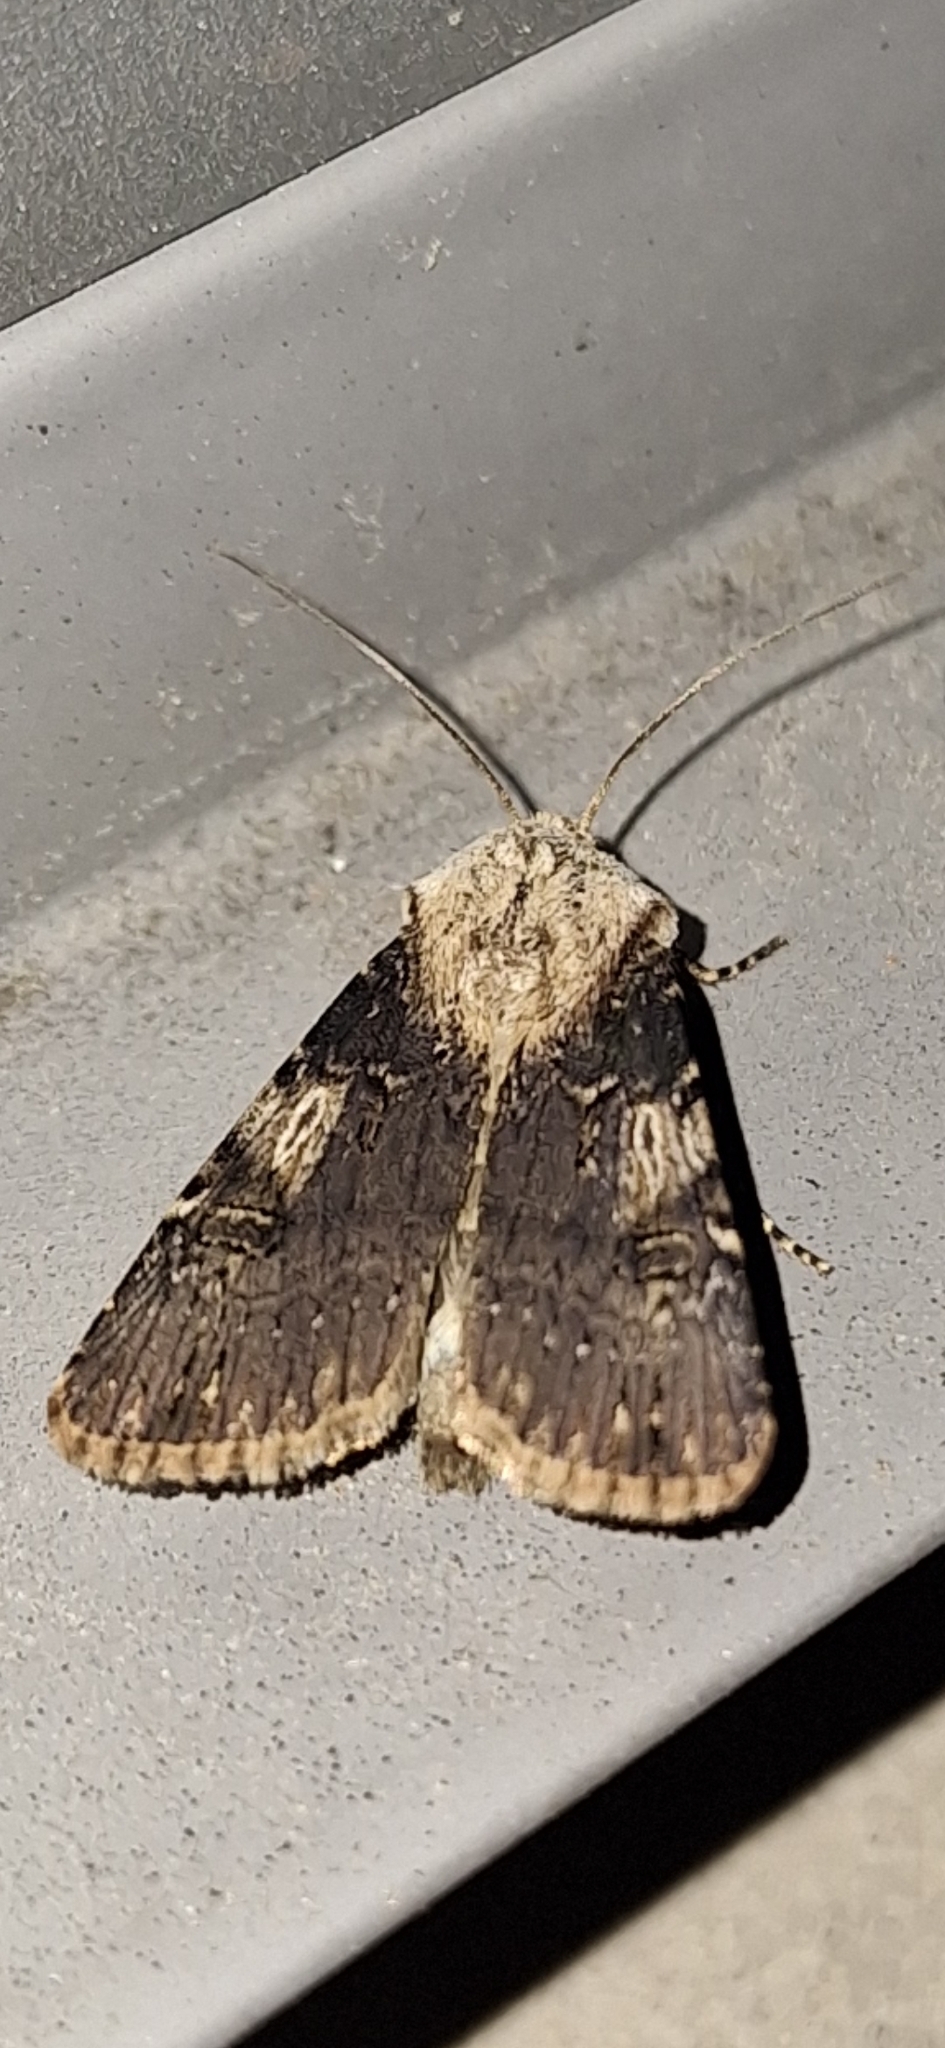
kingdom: Animalia
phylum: Arthropoda
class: Insecta
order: Lepidoptera
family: Noctuidae
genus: Agrotis
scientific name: Agrotis puta
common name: Shuttle-shaped dart
